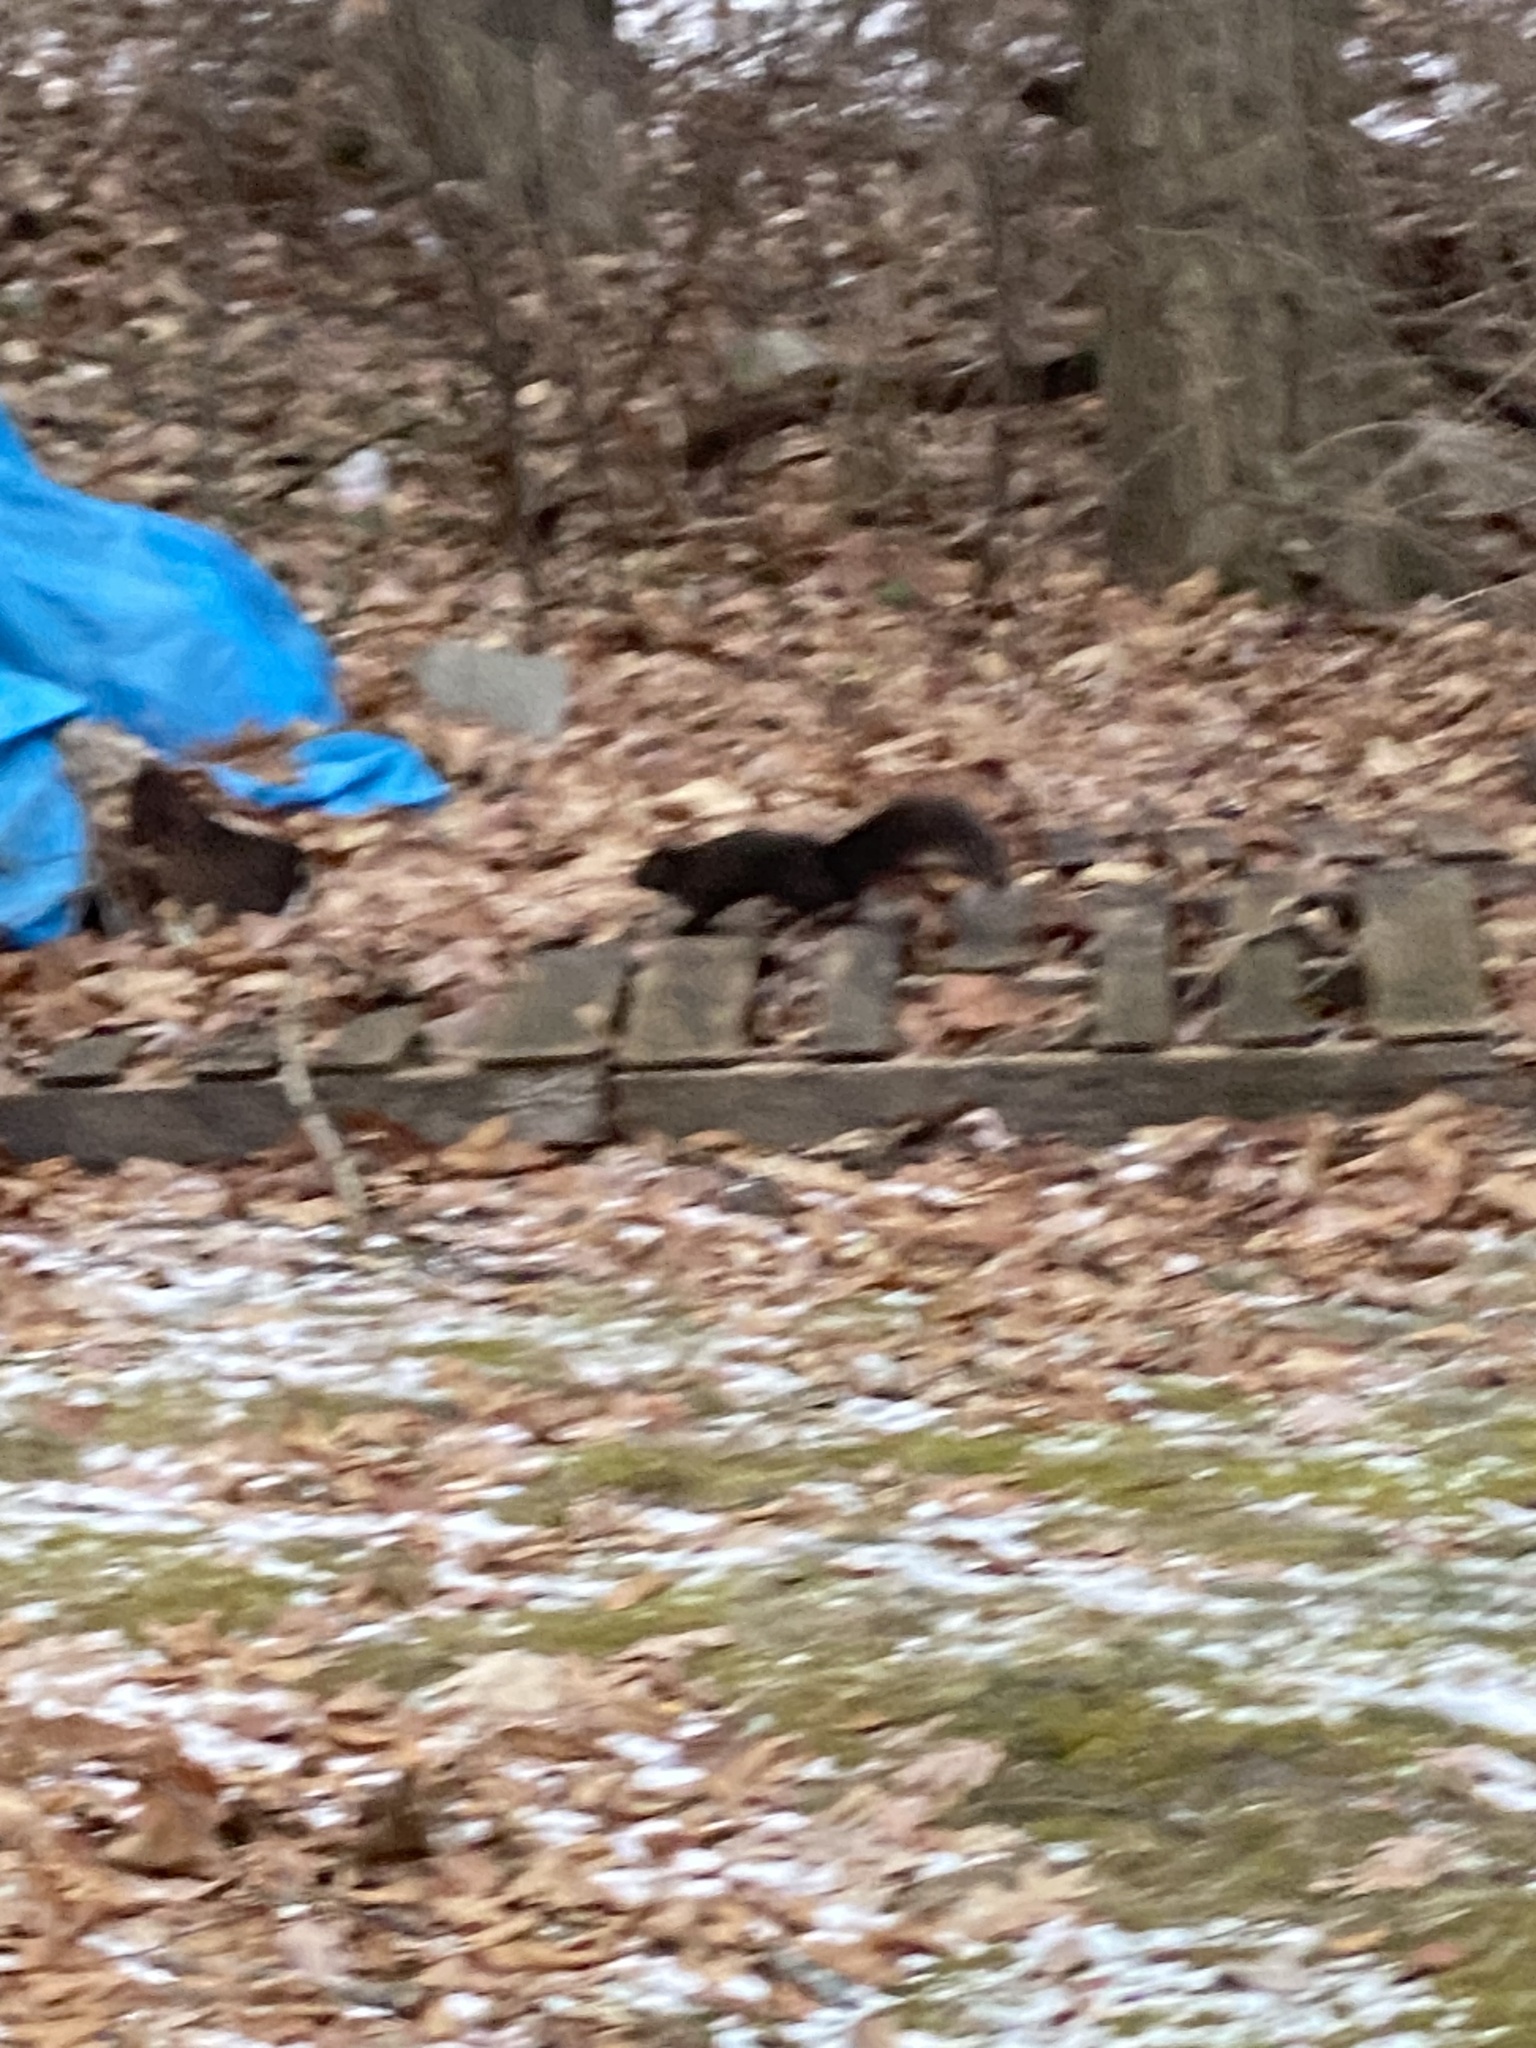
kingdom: Animalia
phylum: Chordata
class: Mammalia
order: Rodentia
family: Sciuridae
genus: Sciurus
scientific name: Sciurus carolinensis
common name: Eastern gray squirrel
